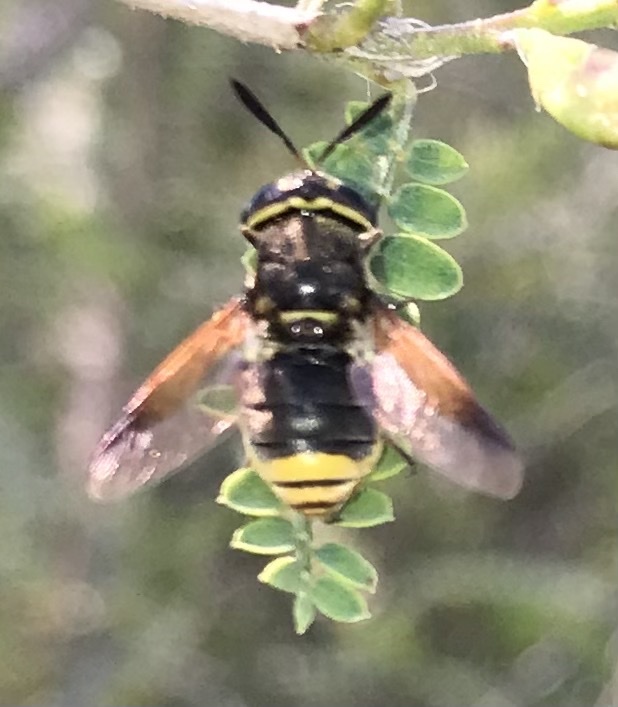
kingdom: Animalia
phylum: Arthropoda
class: Insecta
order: Diptera
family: Stratiomyidae
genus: Hoplitimyia
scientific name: Hoplitimyia mutabilis
